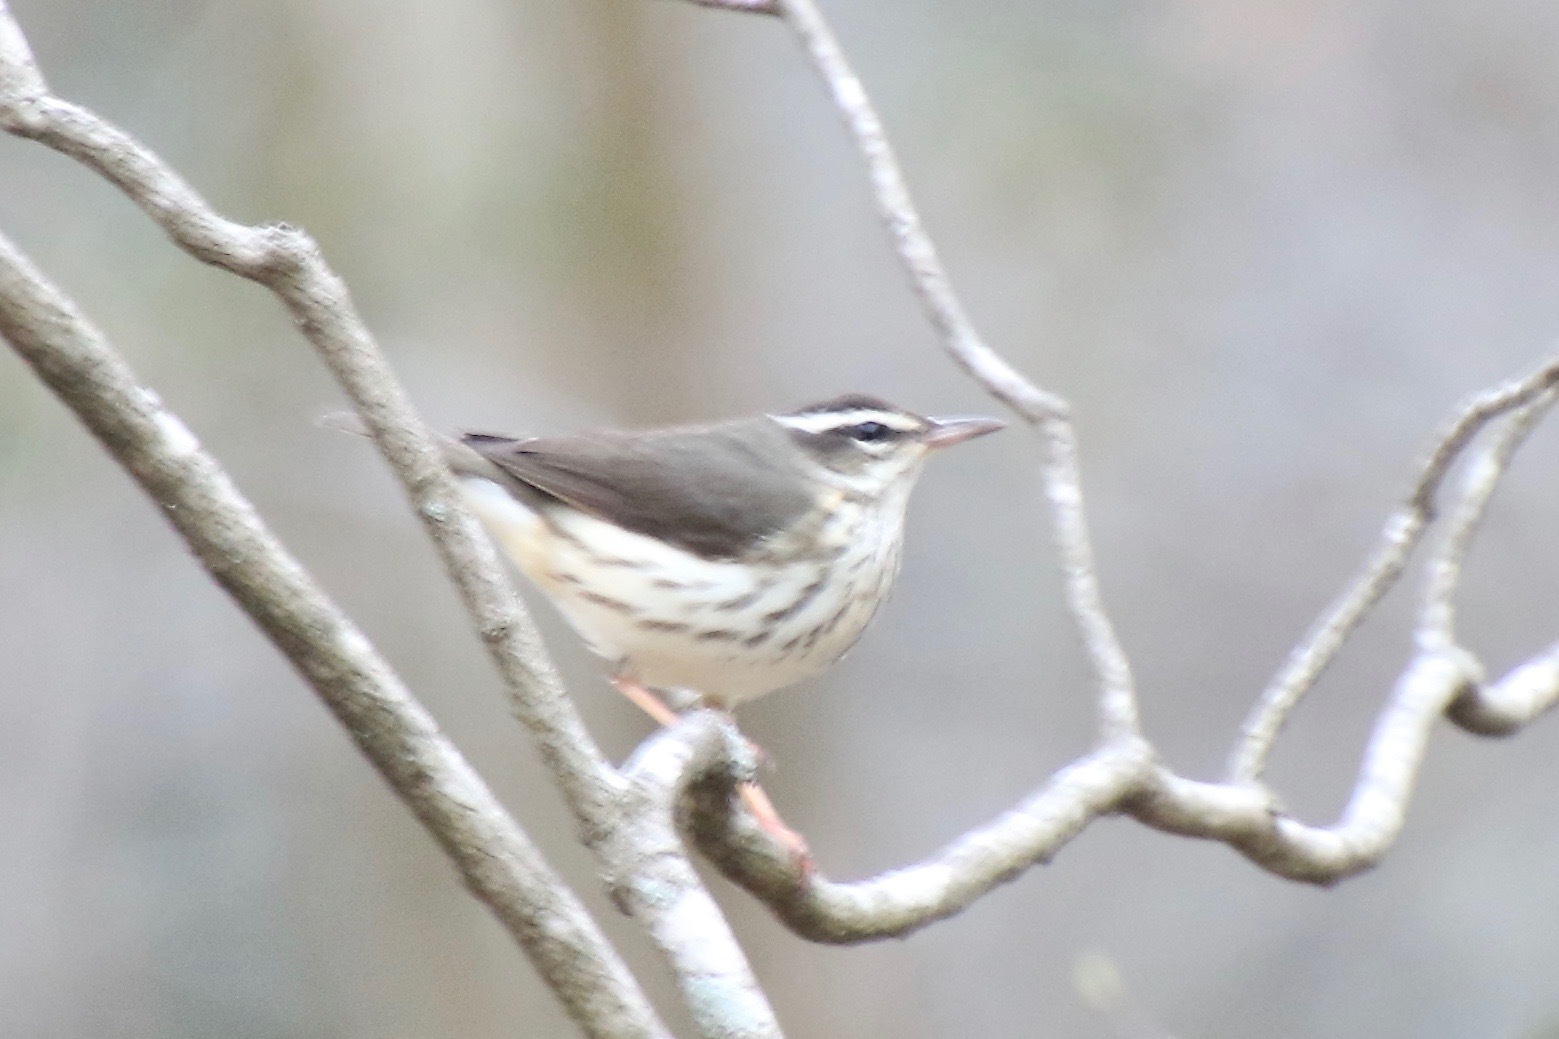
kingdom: Animalia
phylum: Chordata
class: Aves
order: Passeriformes
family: Parulidae
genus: Parkesia
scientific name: Parkesia motacilla
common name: Louisiana waterthrush
